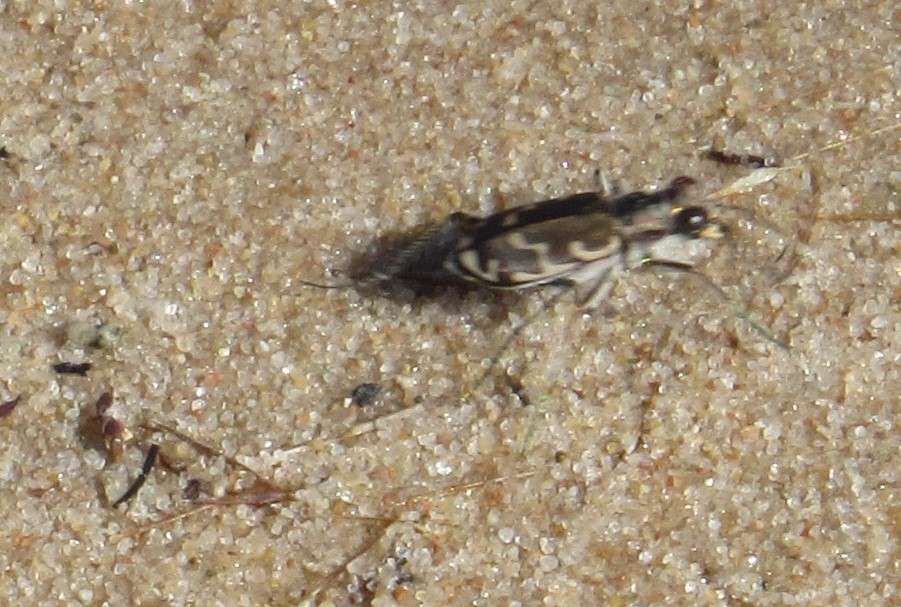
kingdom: Animalia
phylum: Arthropoda
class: Insecta
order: Coleoptera
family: Carabidae
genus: Cicindela
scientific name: Cicindela repanda
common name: Bronzed tiger beetle
